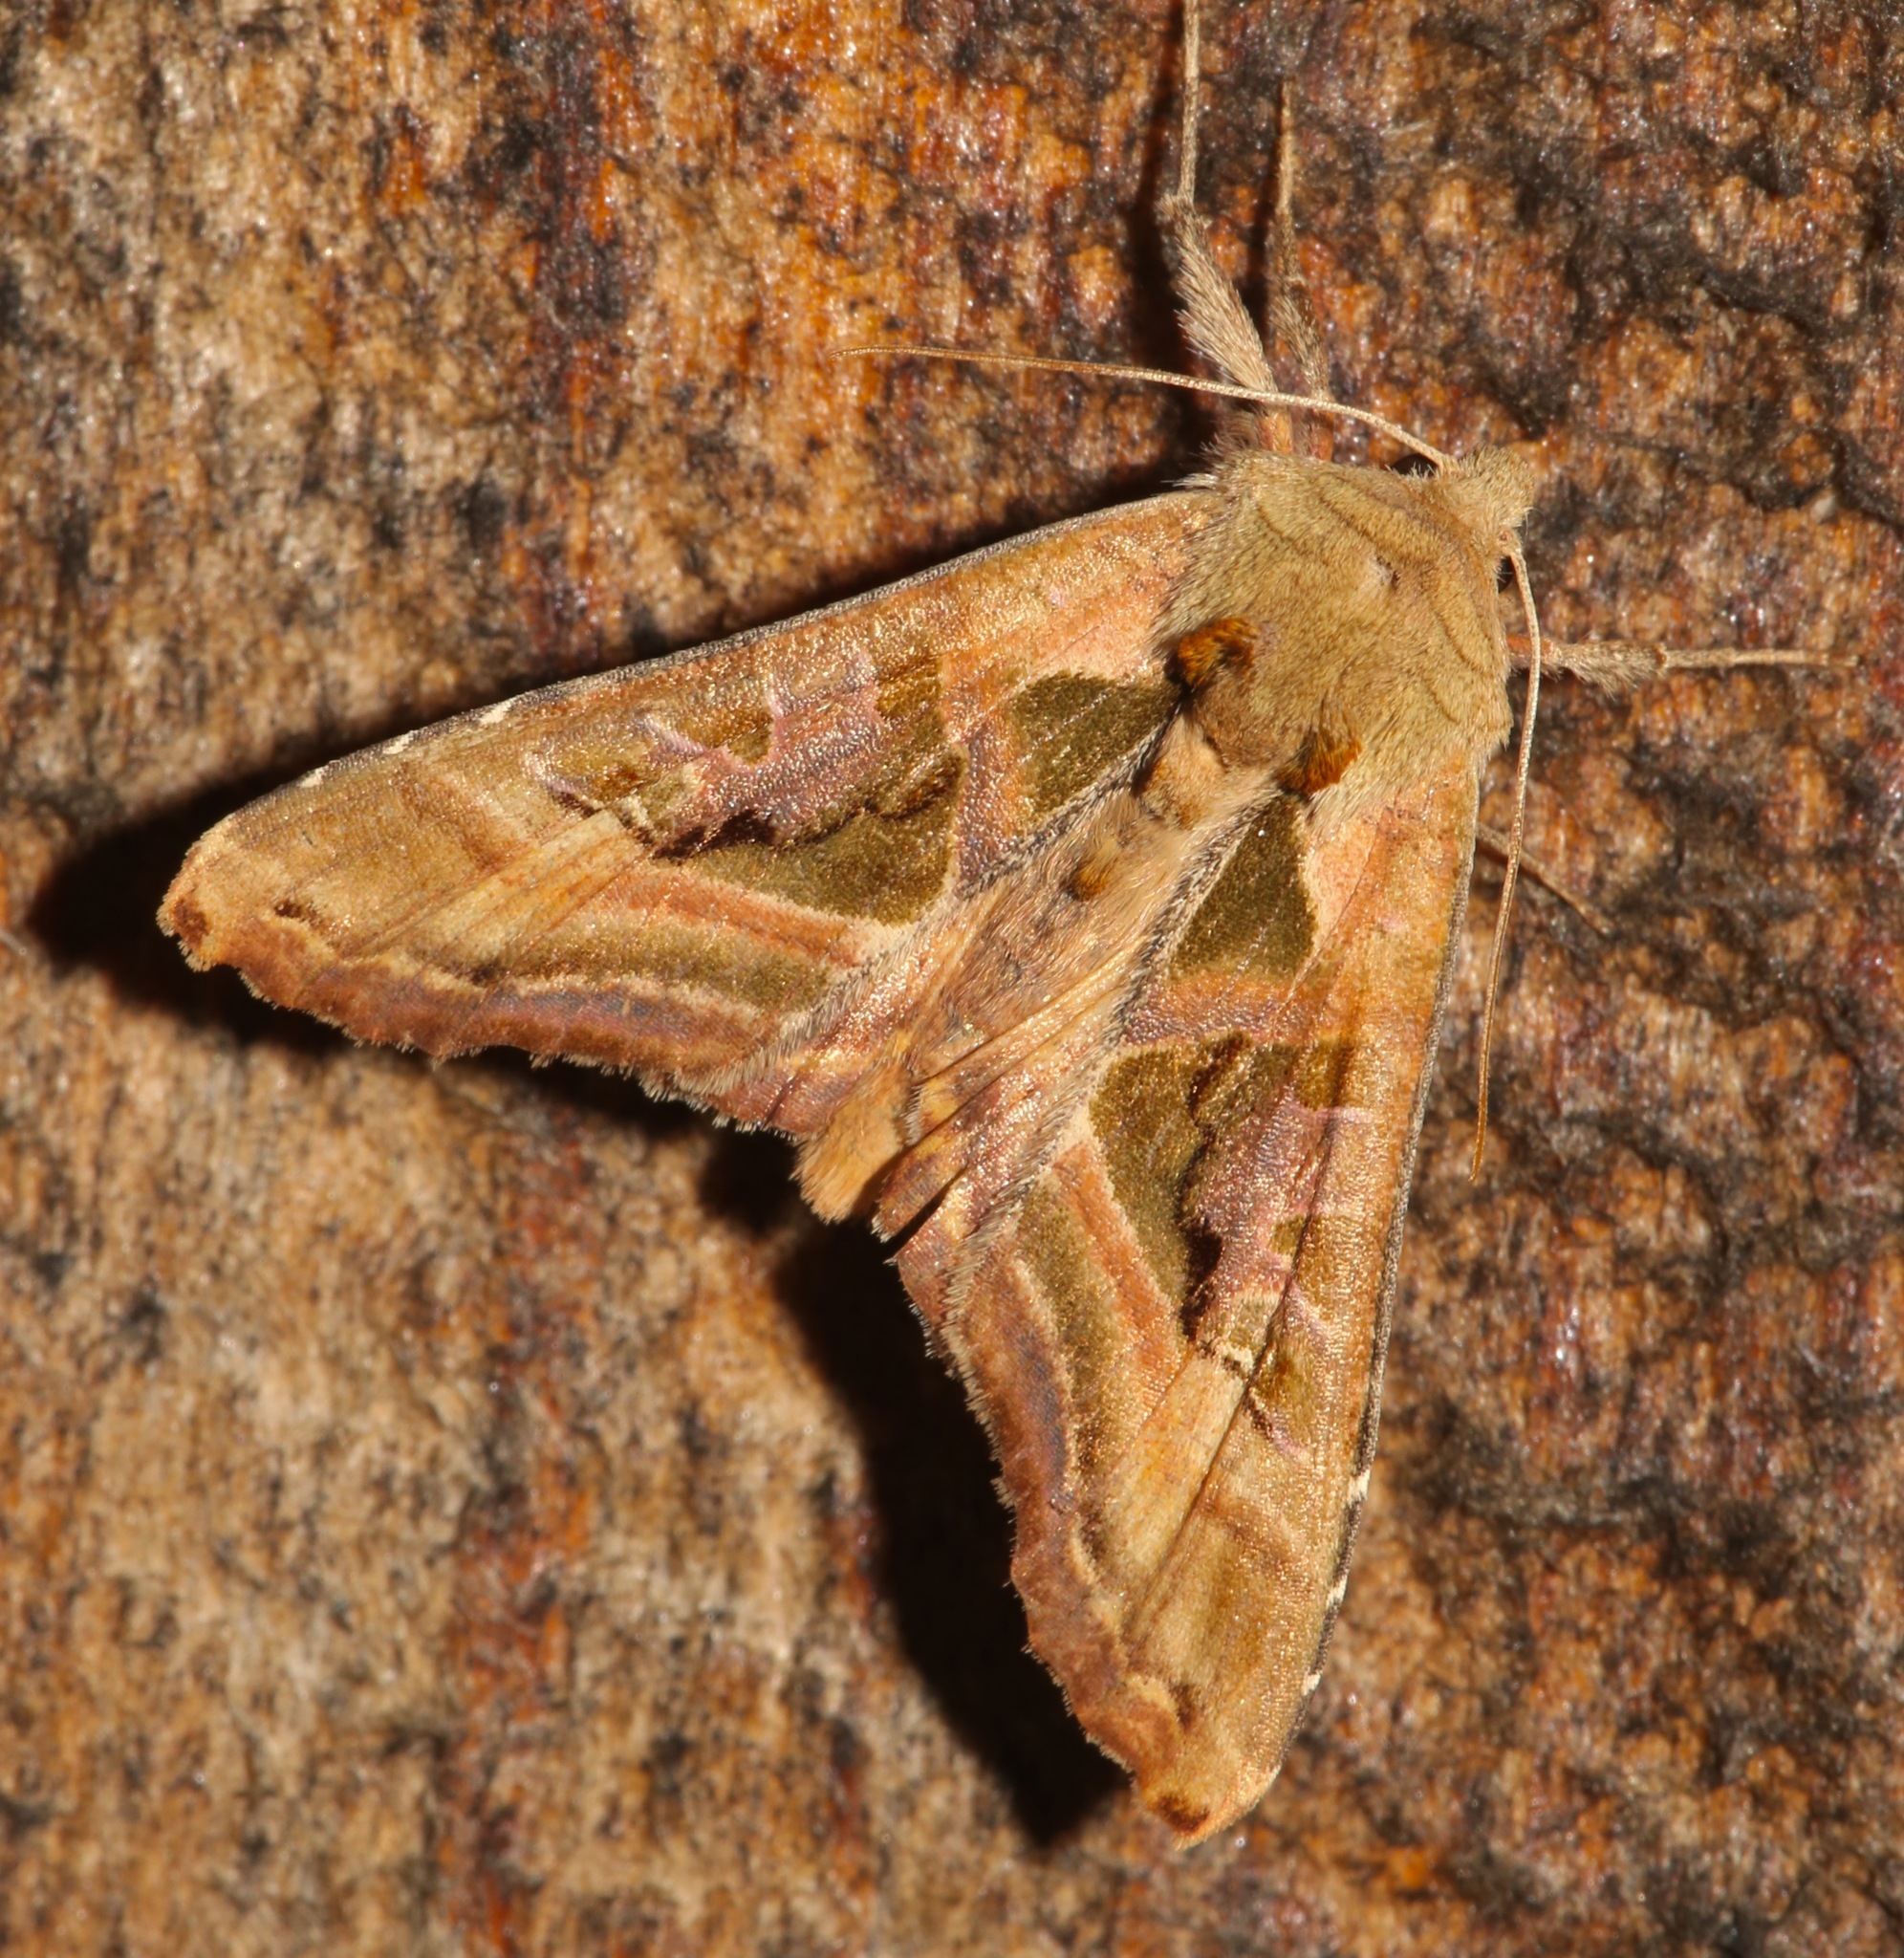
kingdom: Animalia
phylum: Arthropoda
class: Insecta
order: Lepidoptera
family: Noctuidae
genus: Phlogophora
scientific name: Phlogophora iris
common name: Olive angle shades
